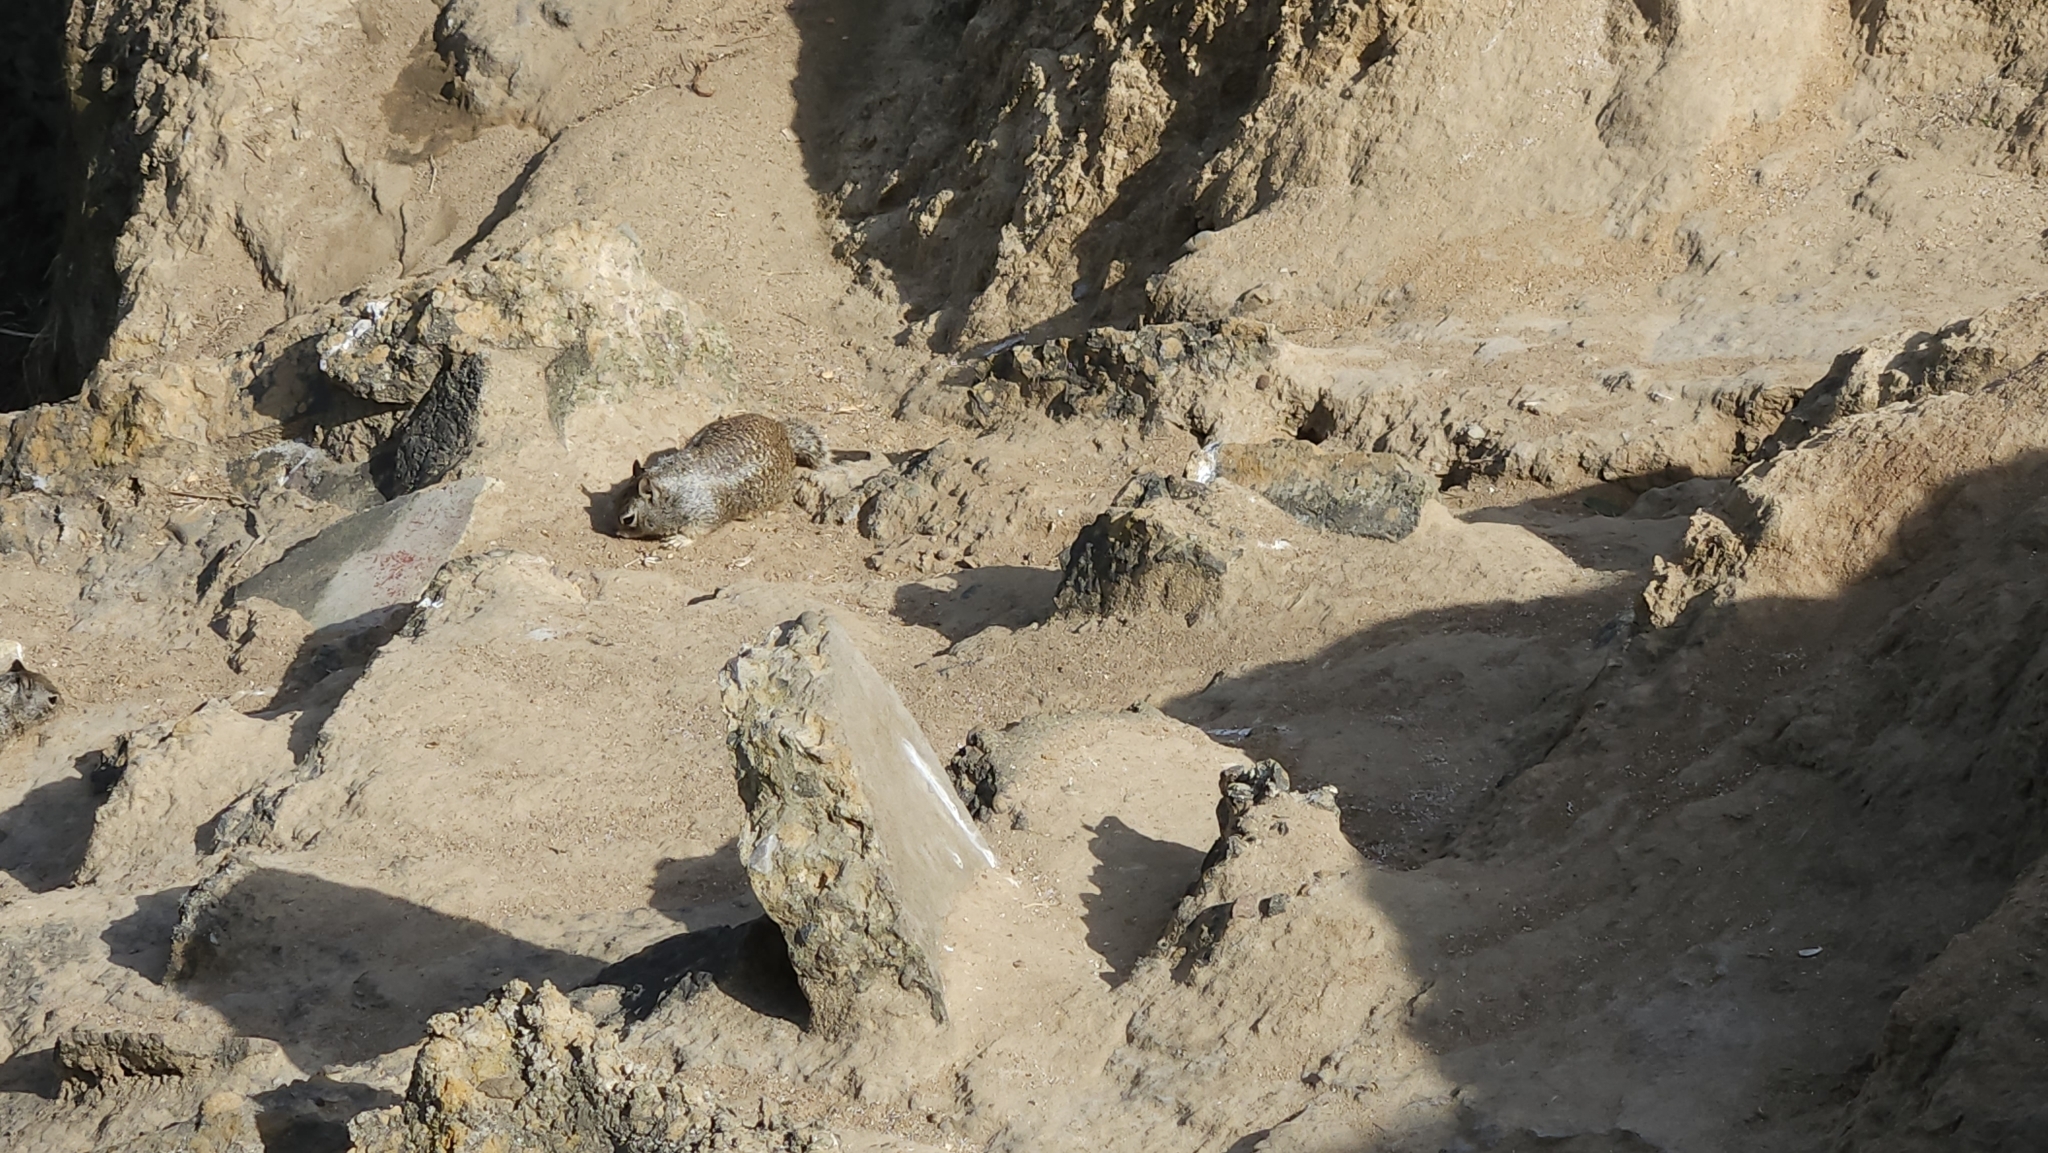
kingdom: Animalia
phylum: Chordata
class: Mammalia
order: Rodentia
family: Sciuridae
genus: Otospermophilus
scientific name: Otospermophilus beecheyi
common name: California ground squirrel
